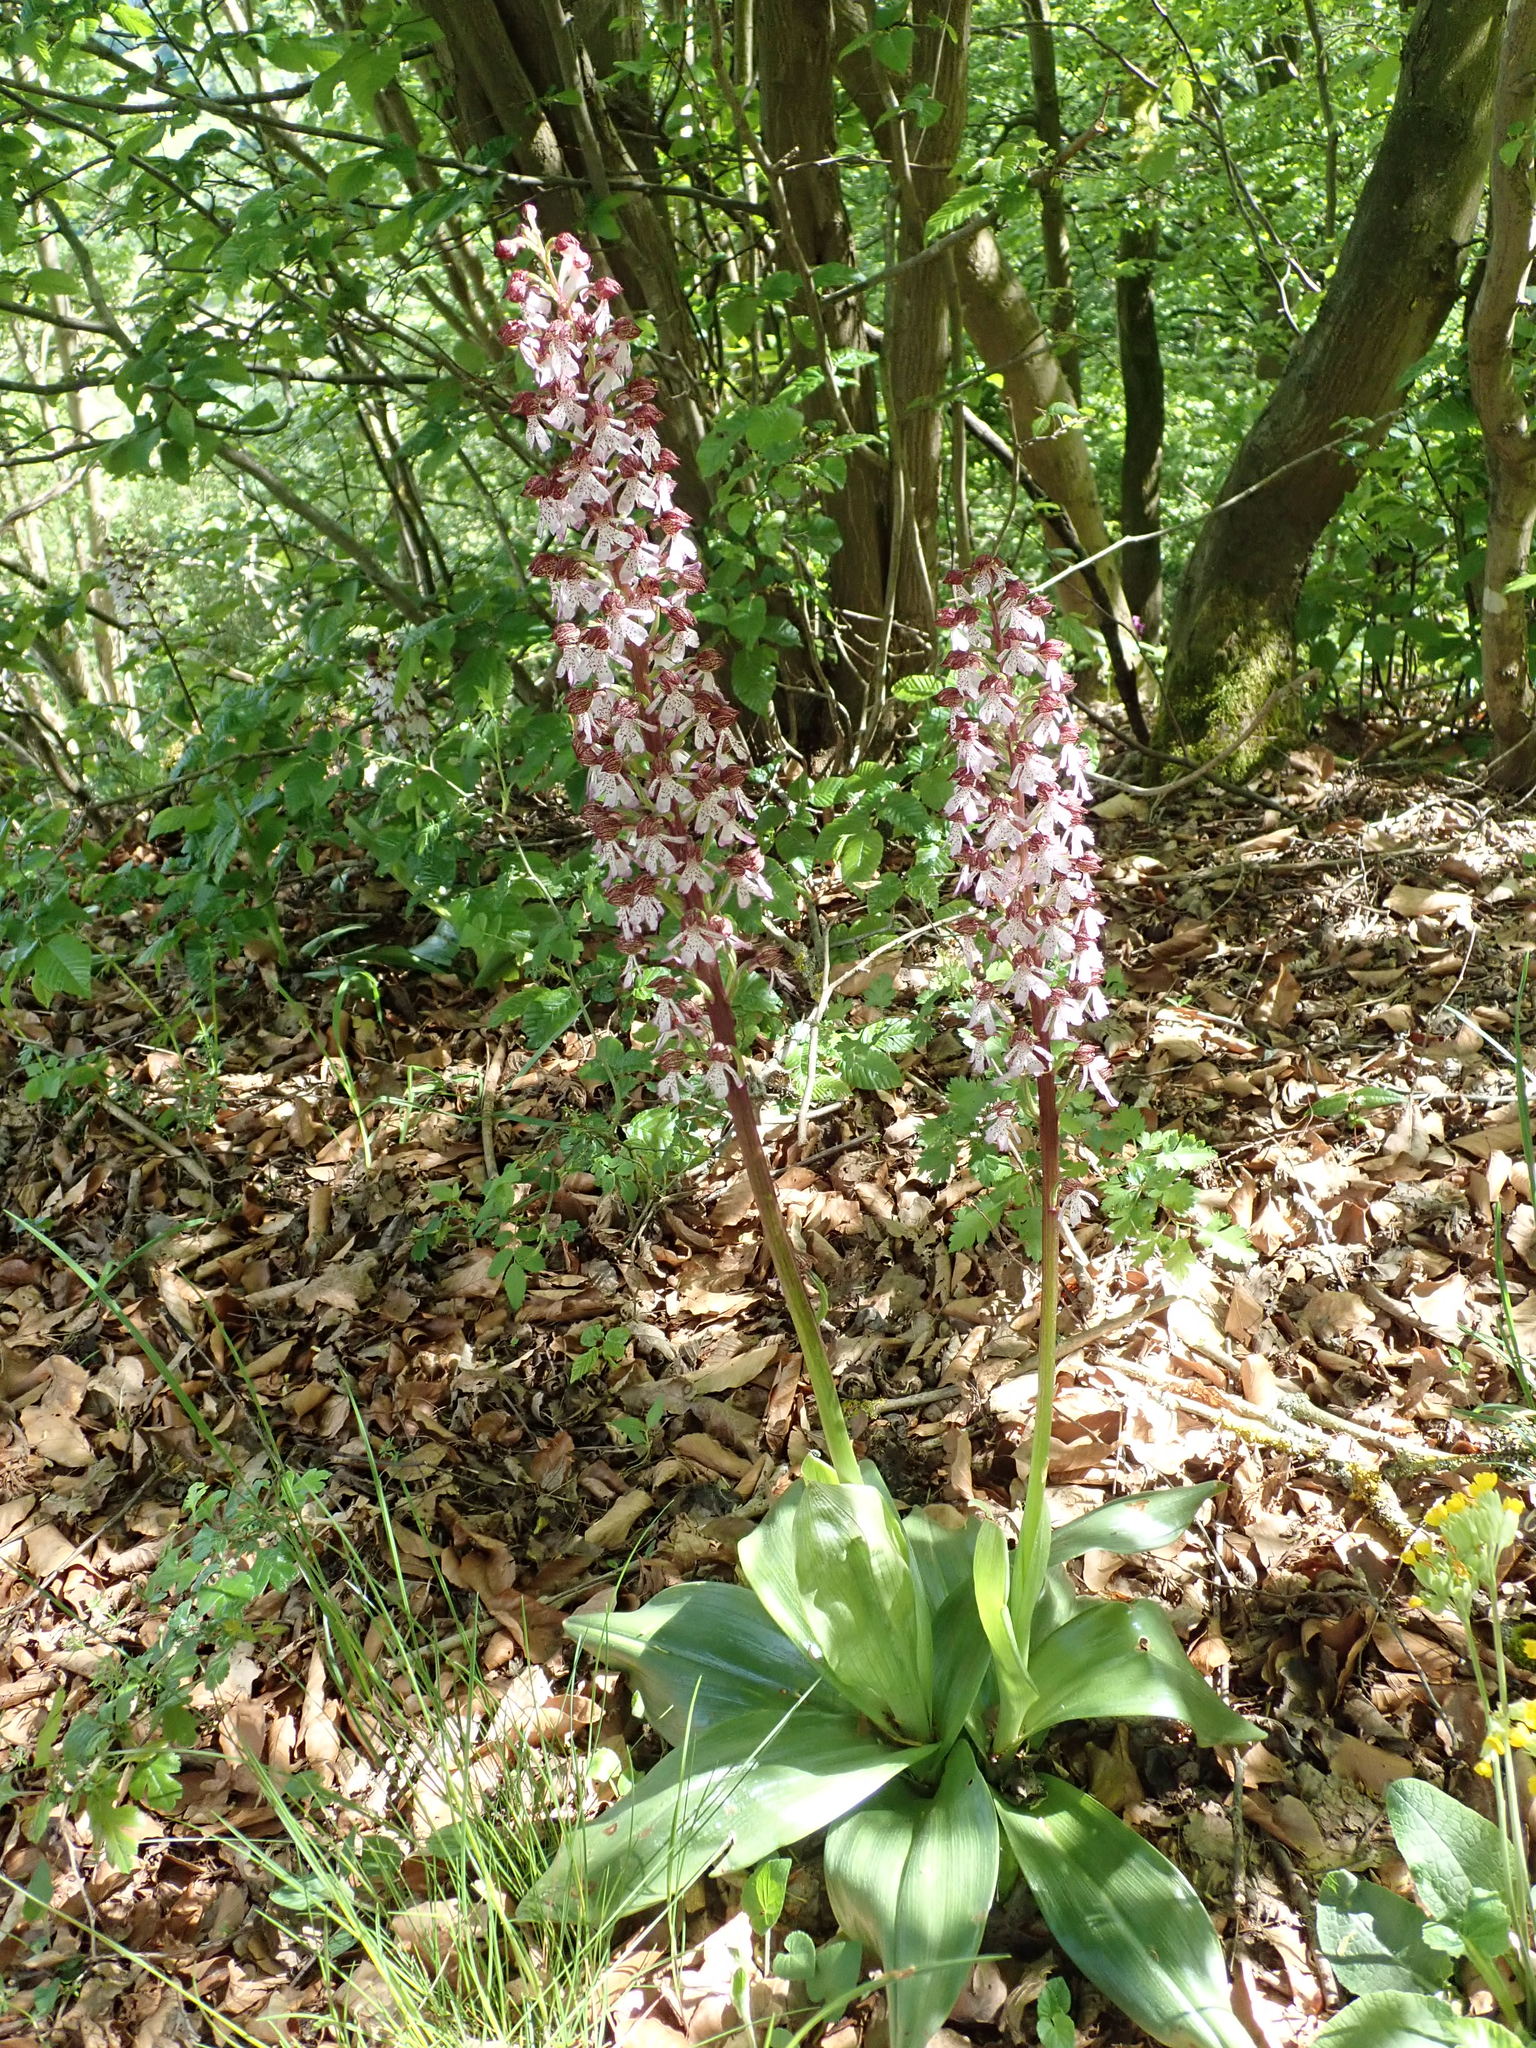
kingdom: Plantae
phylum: Tracheophyta
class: Liliopsida
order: Asparagales
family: Orchidaceae
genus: Orchis
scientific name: Orchis purpurea
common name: Lady orchid
